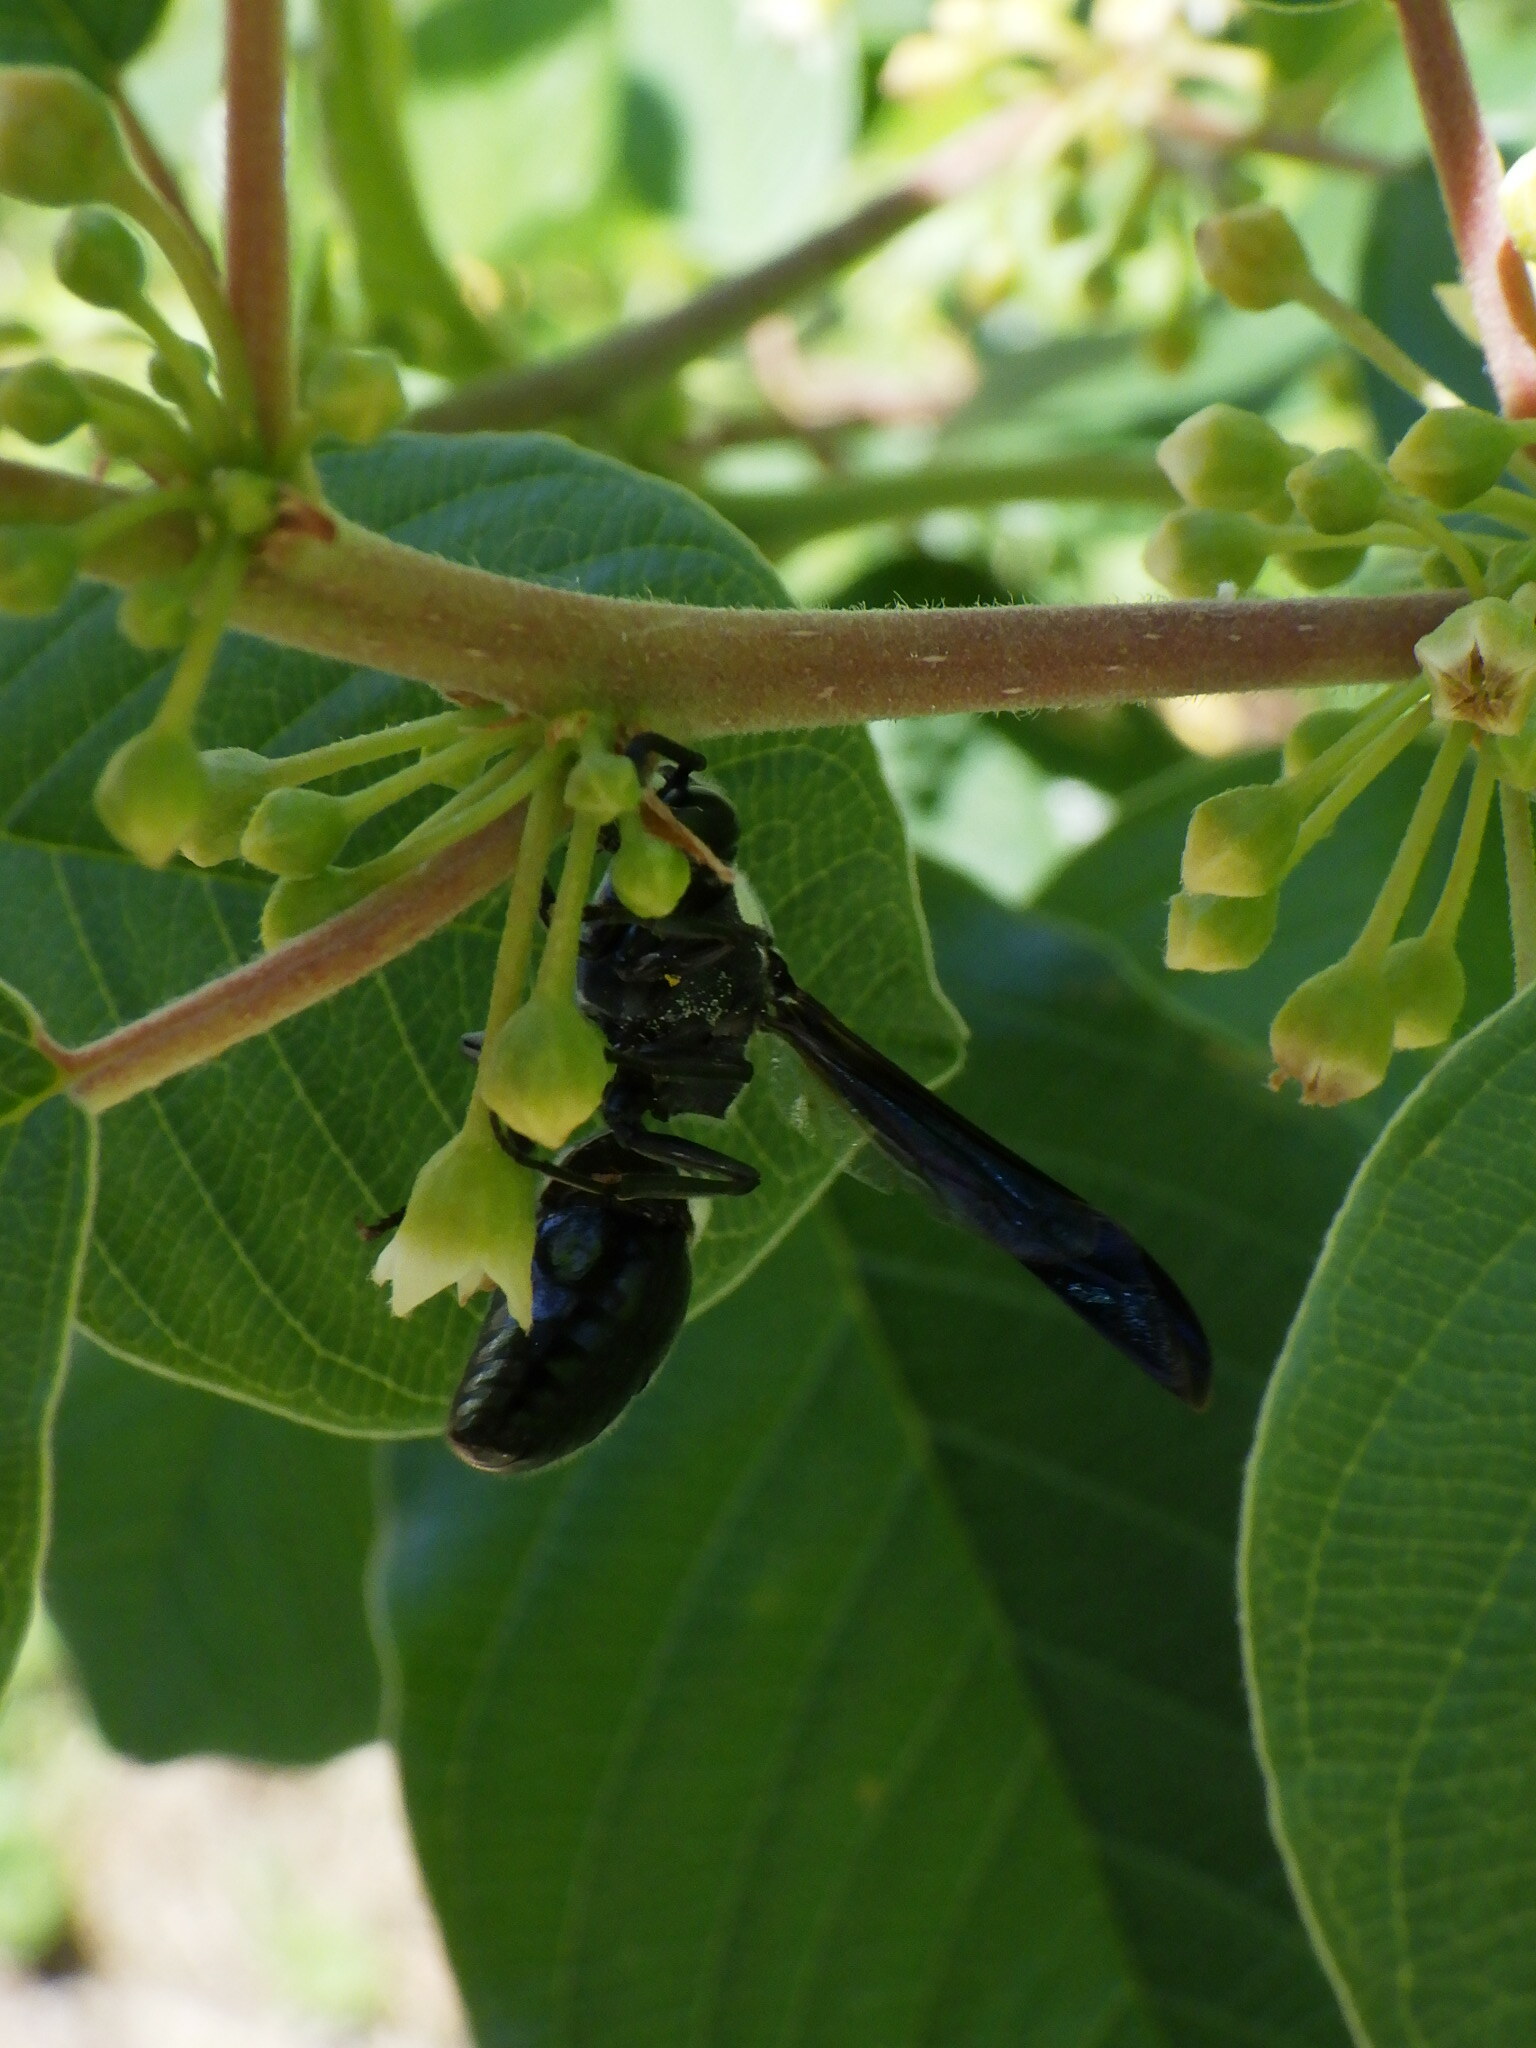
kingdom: Animalia
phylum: Arthropoda
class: Insecta
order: Hymenoptera
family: Eumenidae
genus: Monobia
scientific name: Monobia quadridens
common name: Four-toothed mason wasp
